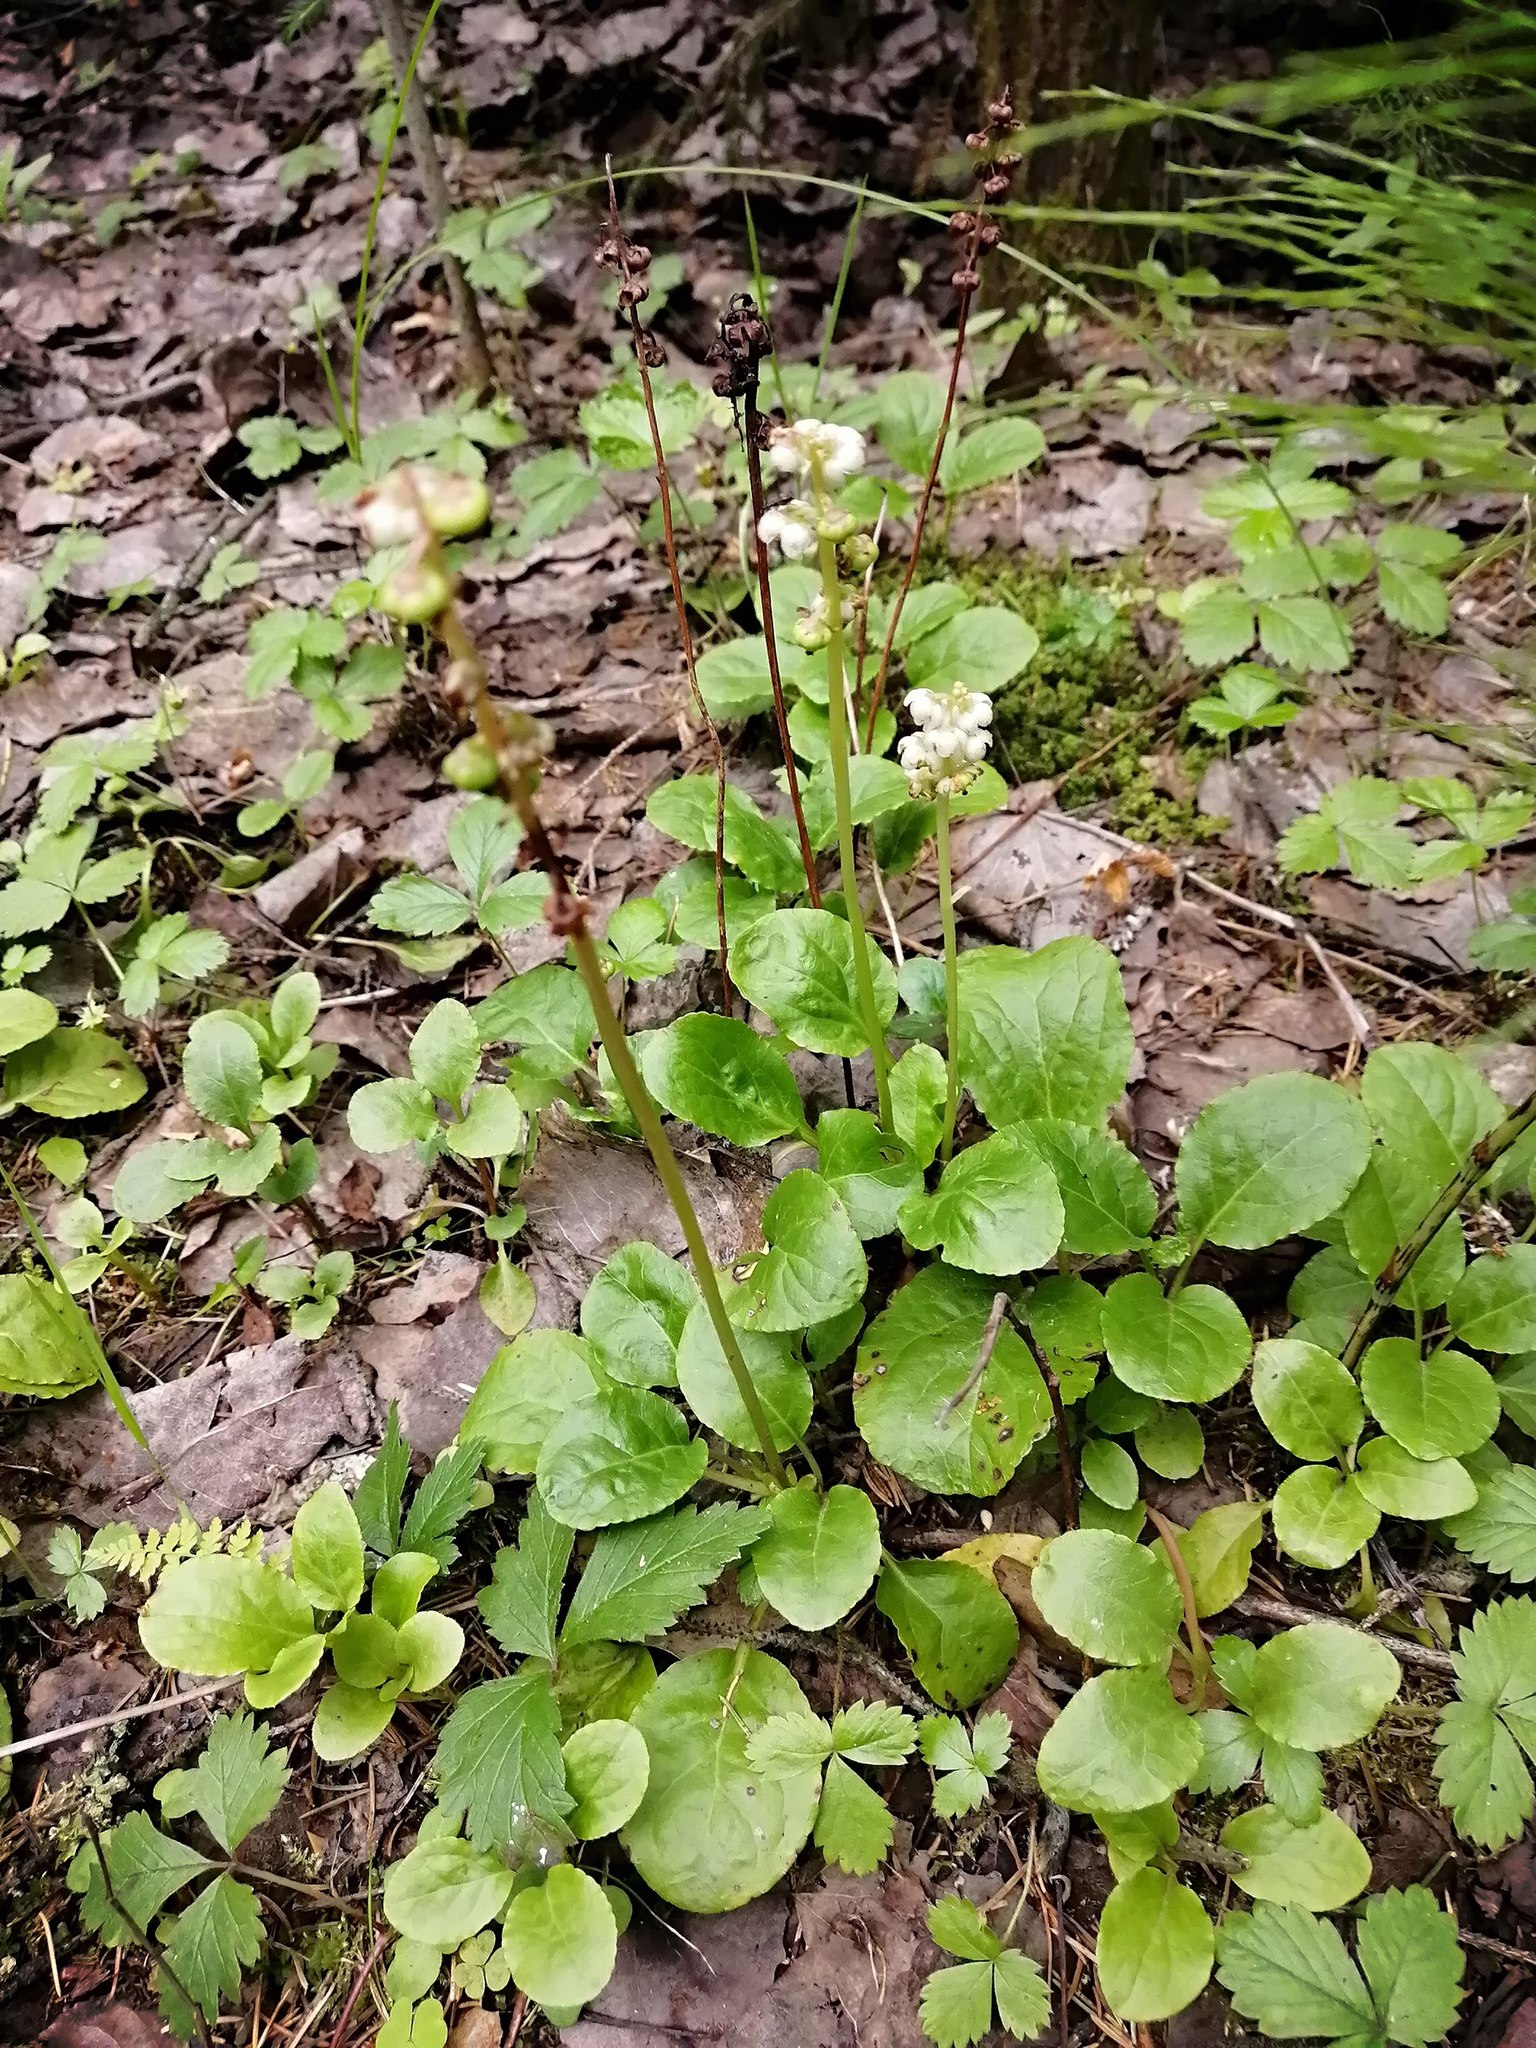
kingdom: Plantae
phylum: Tracheophyta
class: Magnoliopsida
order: Ericales
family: Ericaceae
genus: Pyrola
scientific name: Pyrola minor
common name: Common wintergreen
